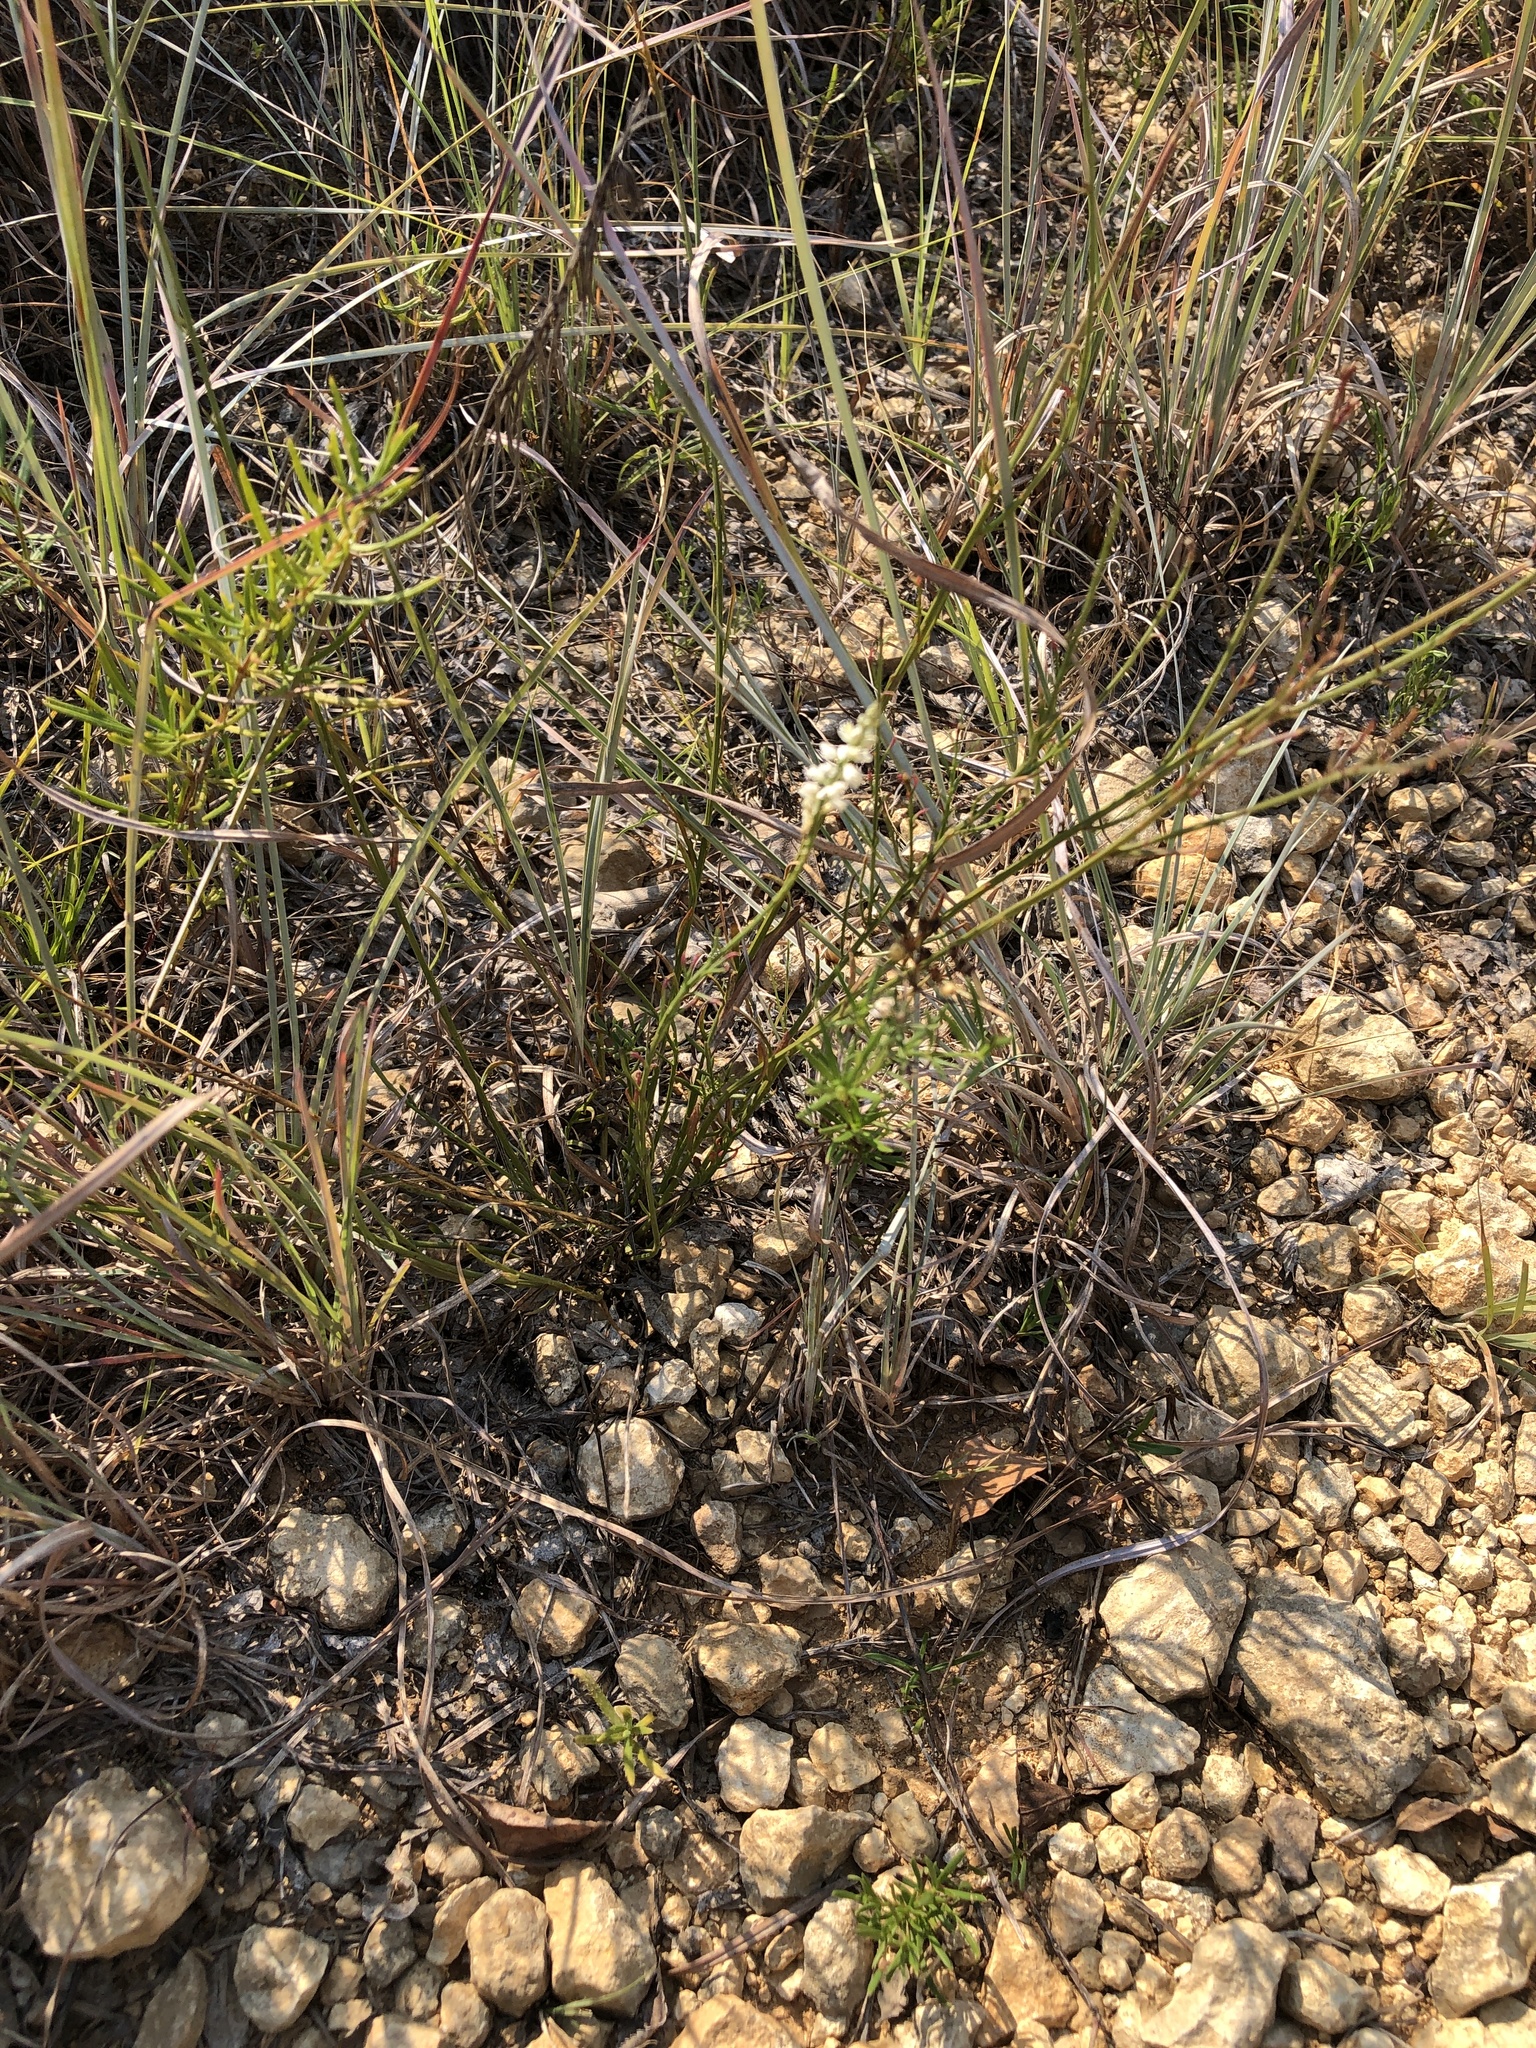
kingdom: Plantae
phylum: Tracheophyta
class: Magnoliopsida
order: Fabales
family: Polygalaceae
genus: Polygala
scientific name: Polygala alba
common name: White milkwort
